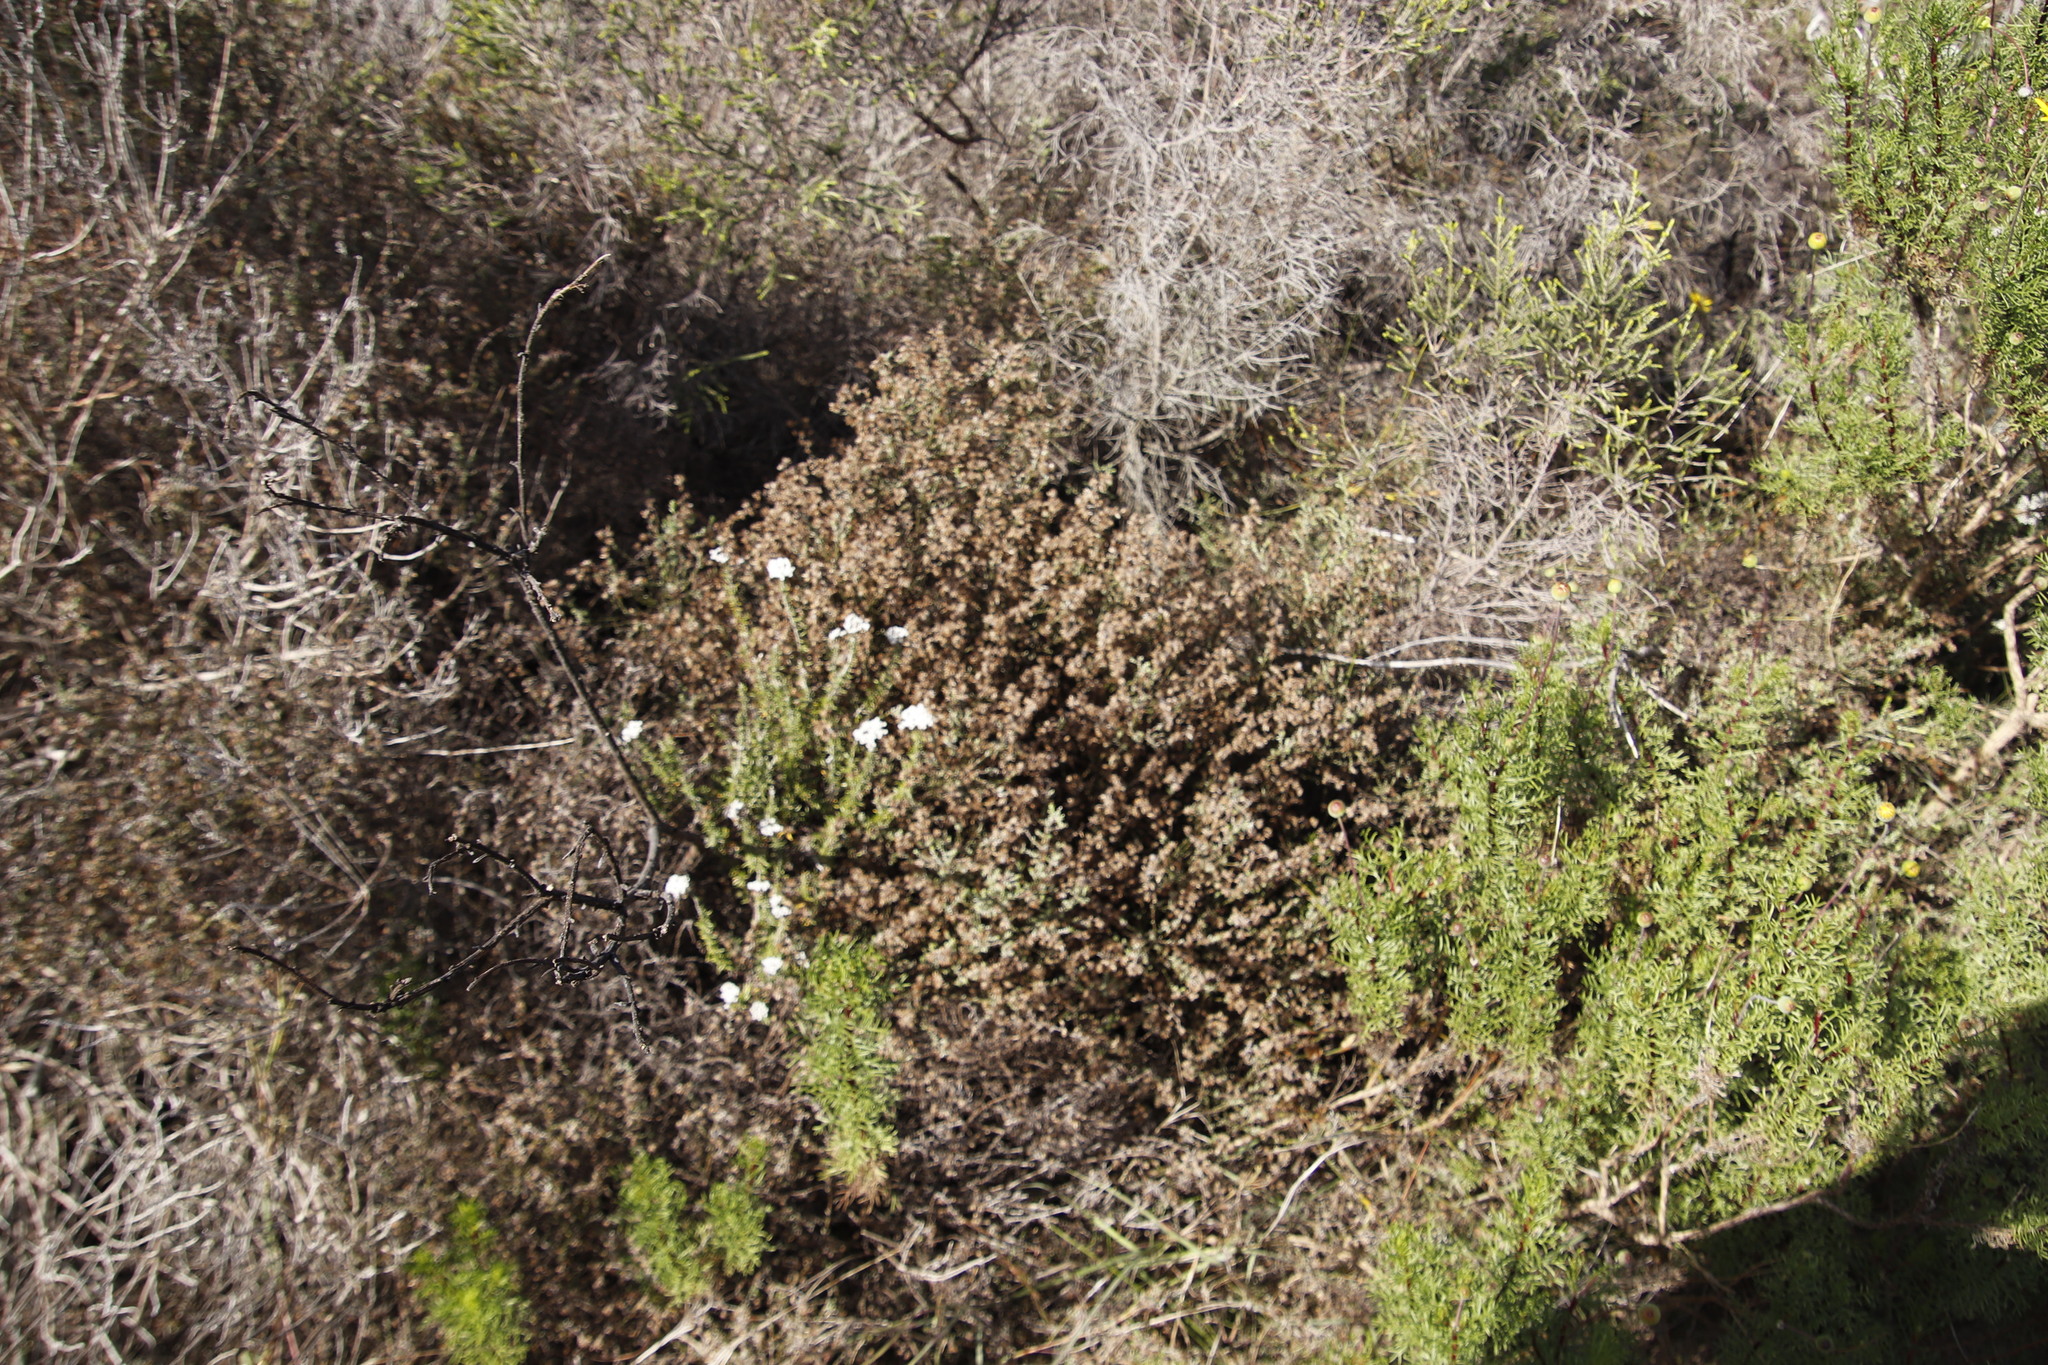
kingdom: Plantae
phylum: Tracheophyta
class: Magnoliopsida
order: Asterales
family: Asteraceae
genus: Myrovernix
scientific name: Myrovernix scaber
